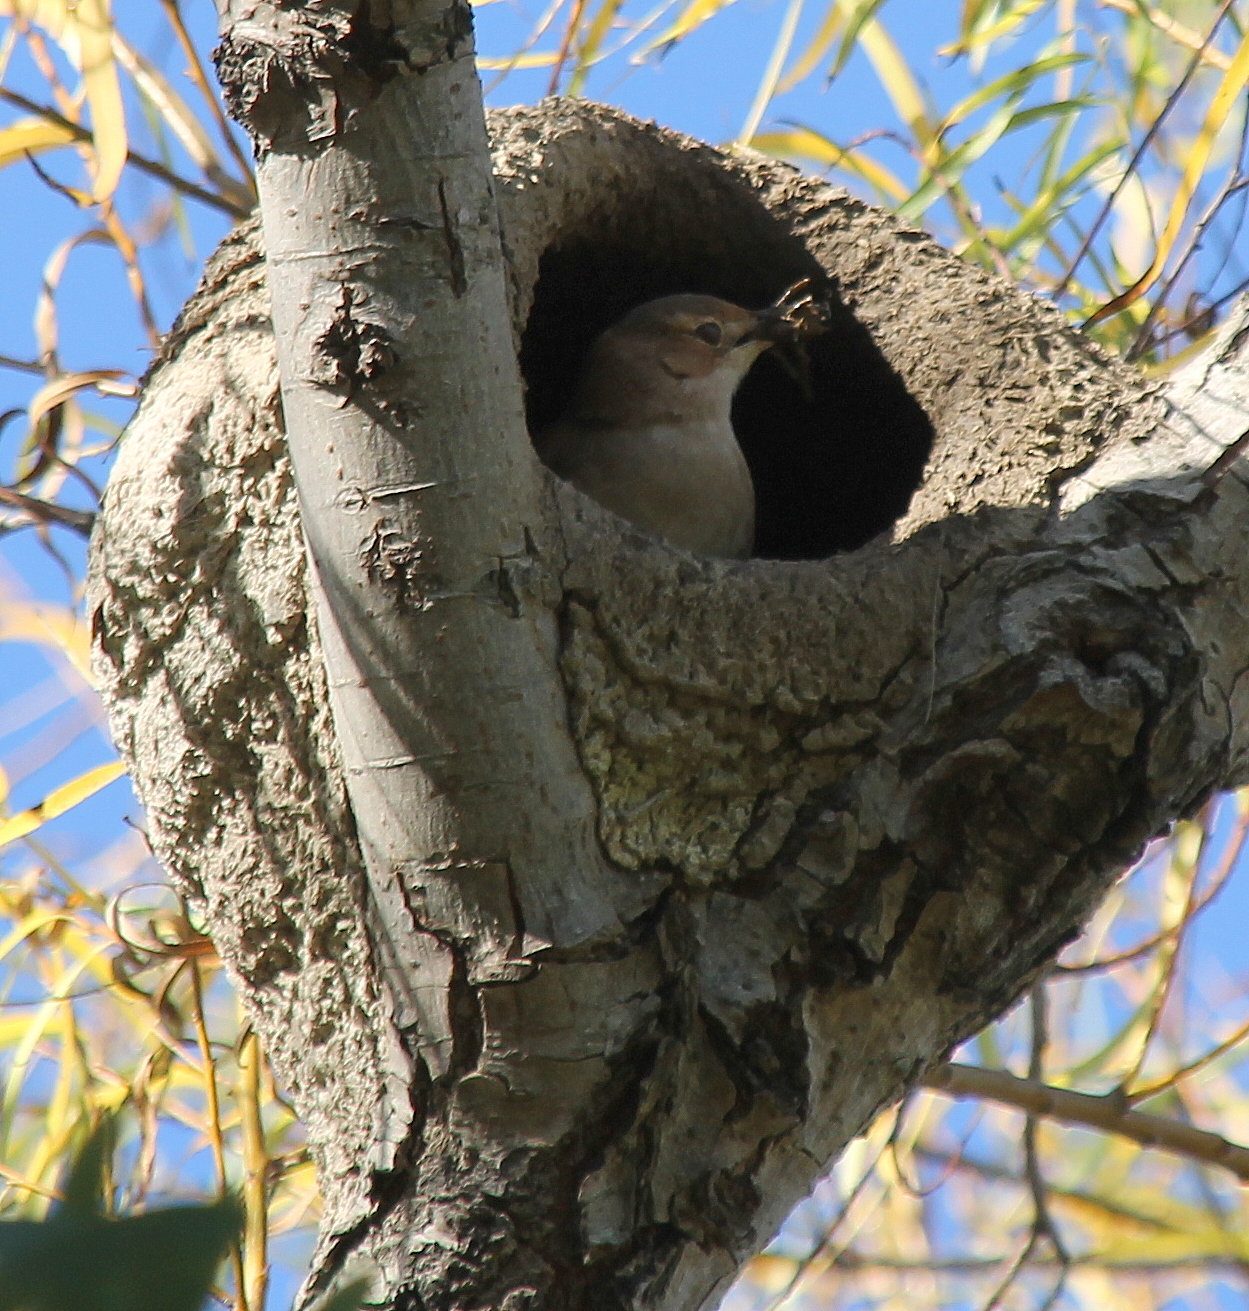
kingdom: Animalia
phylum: Chordata
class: Aves
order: Passeriformes
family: Furnariidae
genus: Furnarius
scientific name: Furnarius rufus
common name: Rufous hornero
